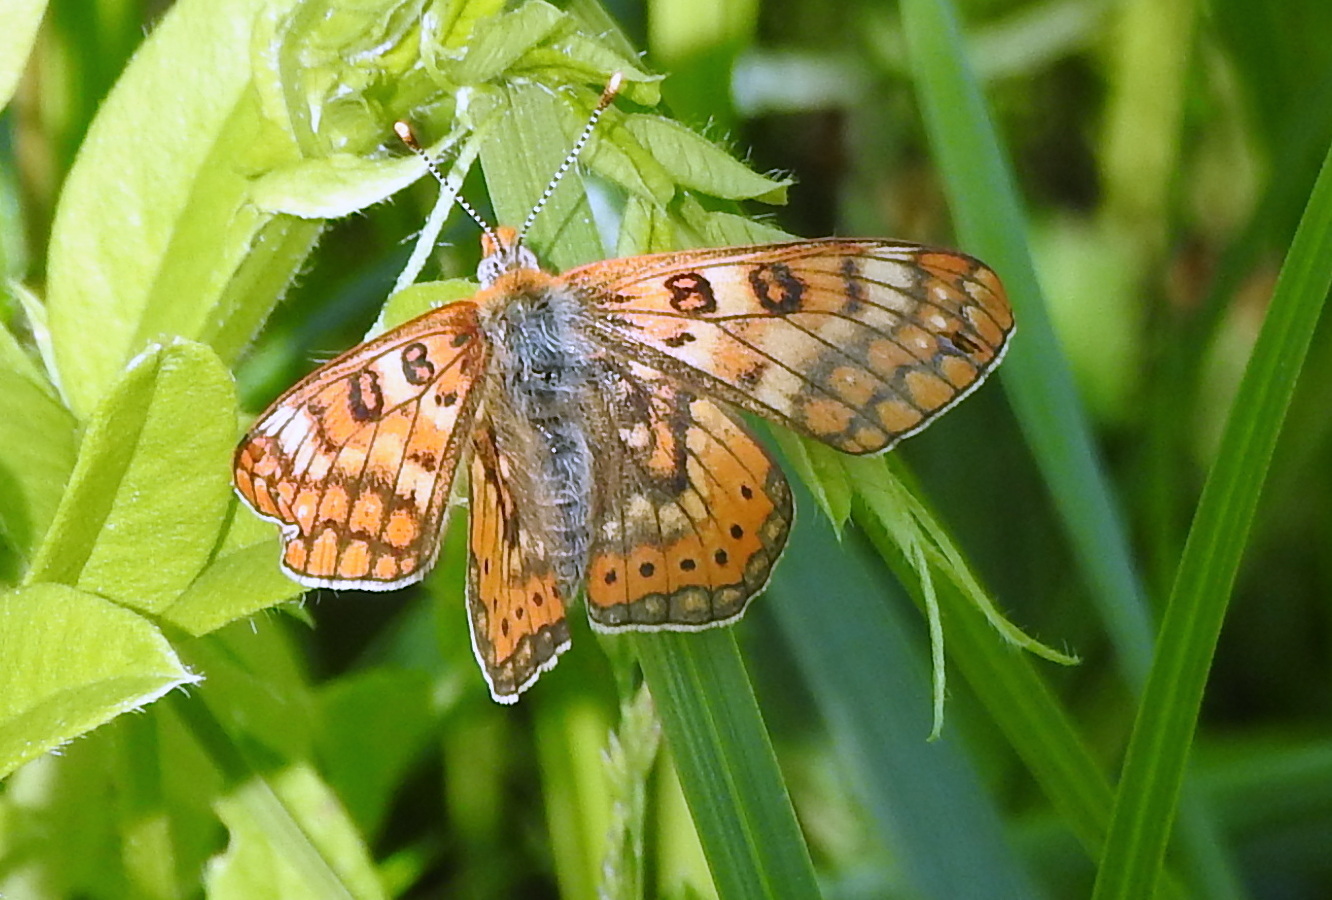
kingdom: Animalia
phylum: Arthropoda
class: Insecta
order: Lepidoptera
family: Nymphalidae
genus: Euphydryas
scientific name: Euphydryas sibirica
